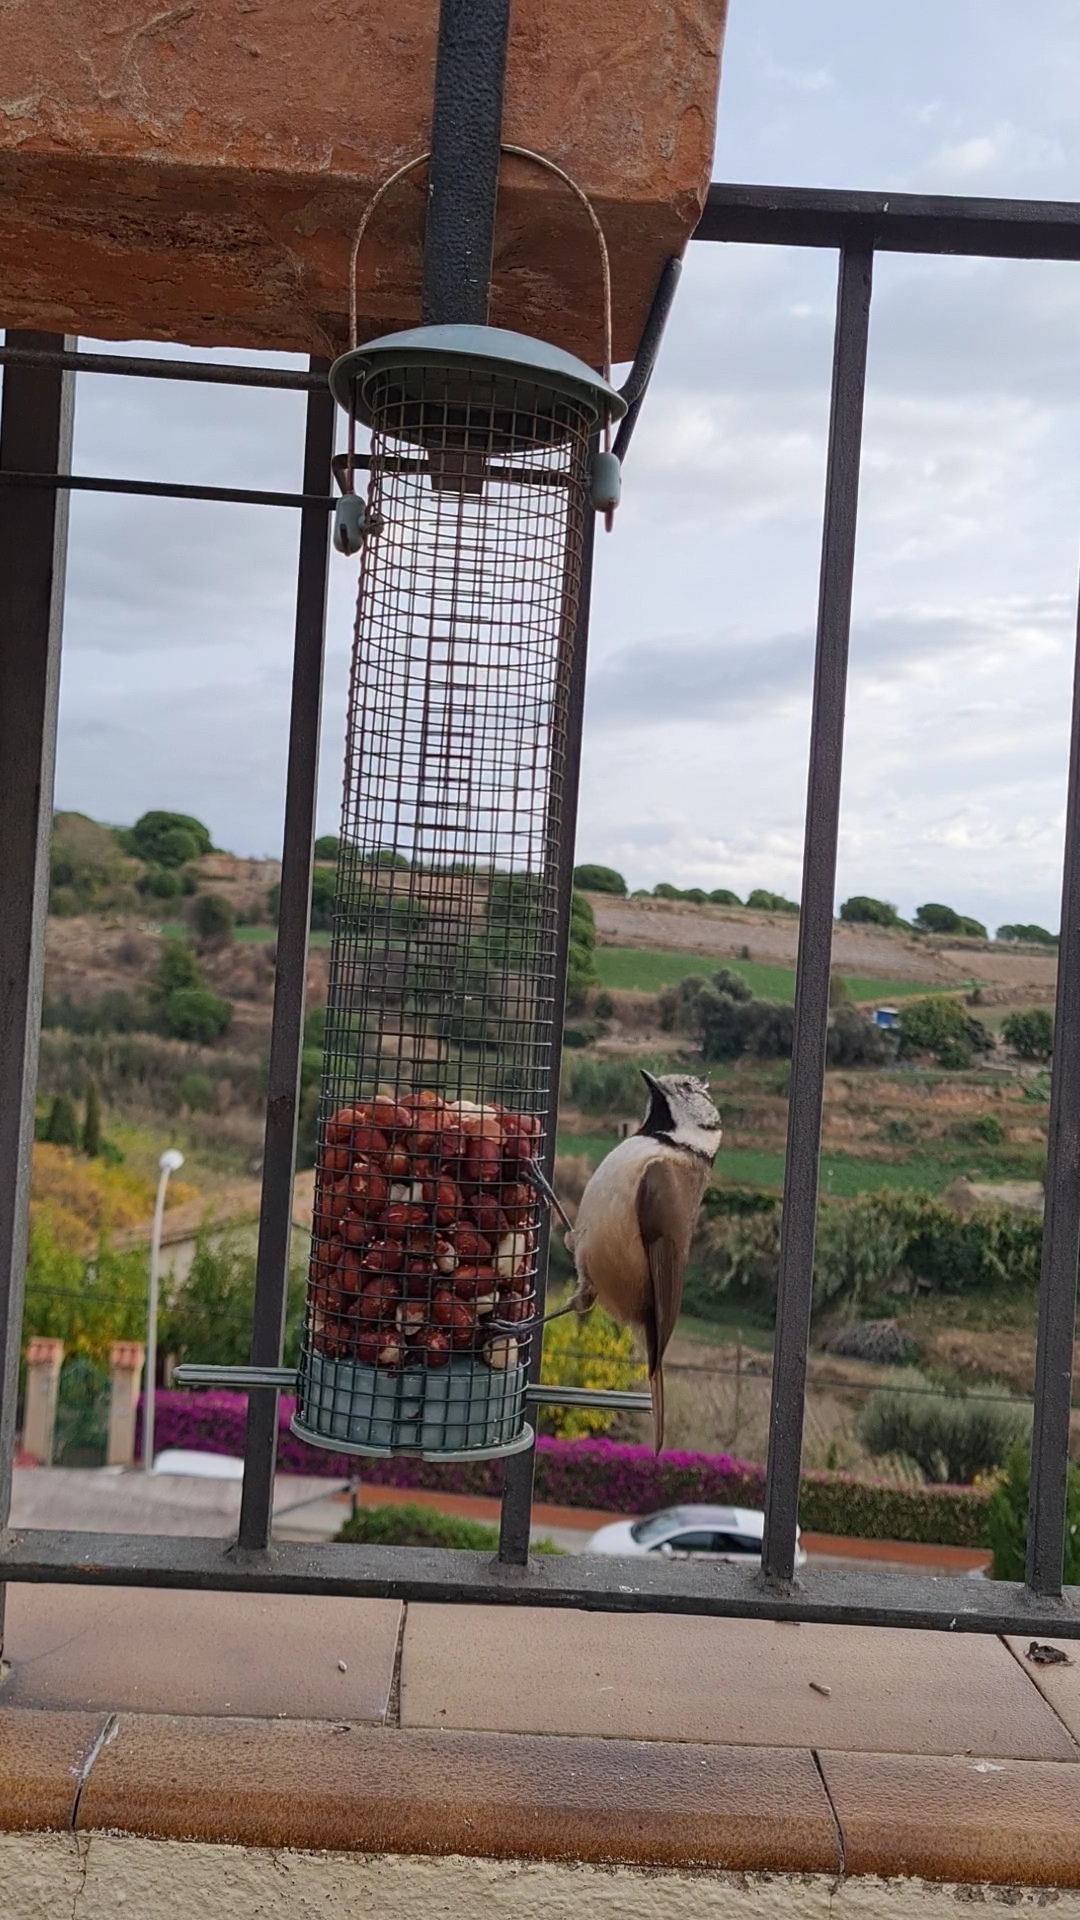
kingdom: Animalia
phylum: Chordata
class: Aves
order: Passeriformes
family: Paridae
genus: Lophophanes
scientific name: Lophophanes cristatus
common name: European crested tit
